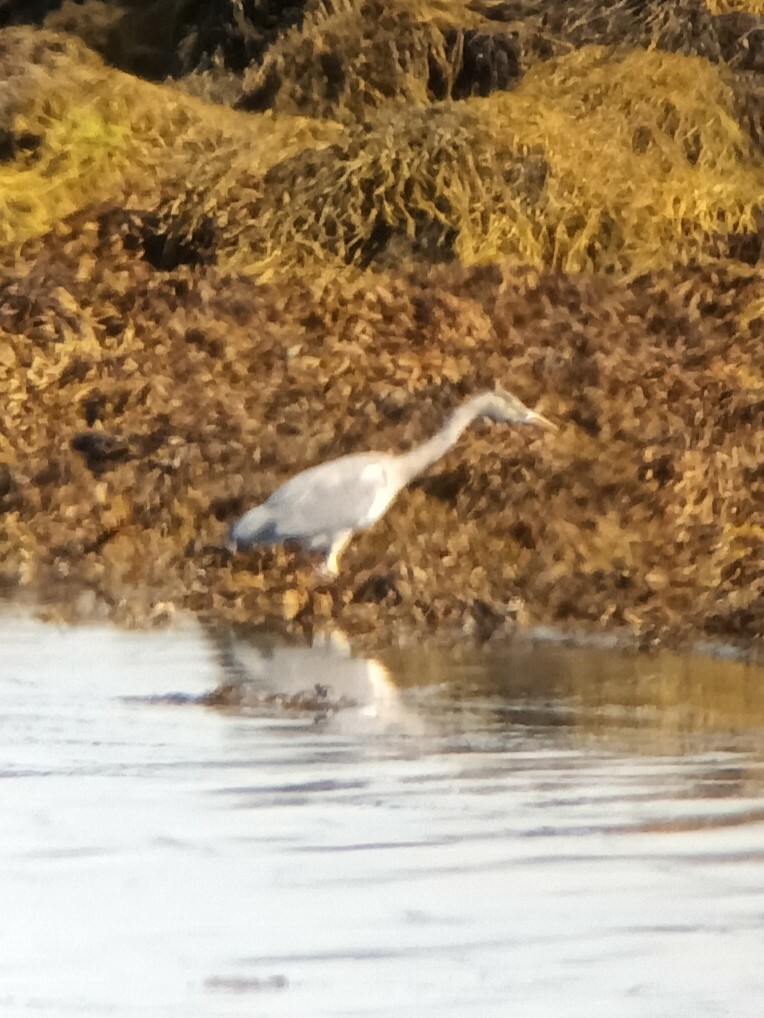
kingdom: Animalia
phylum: Chordata
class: Aves
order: Pelecaniformes
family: Ardeidae
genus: Ardea
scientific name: Ardea cinerea
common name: Grey heron
